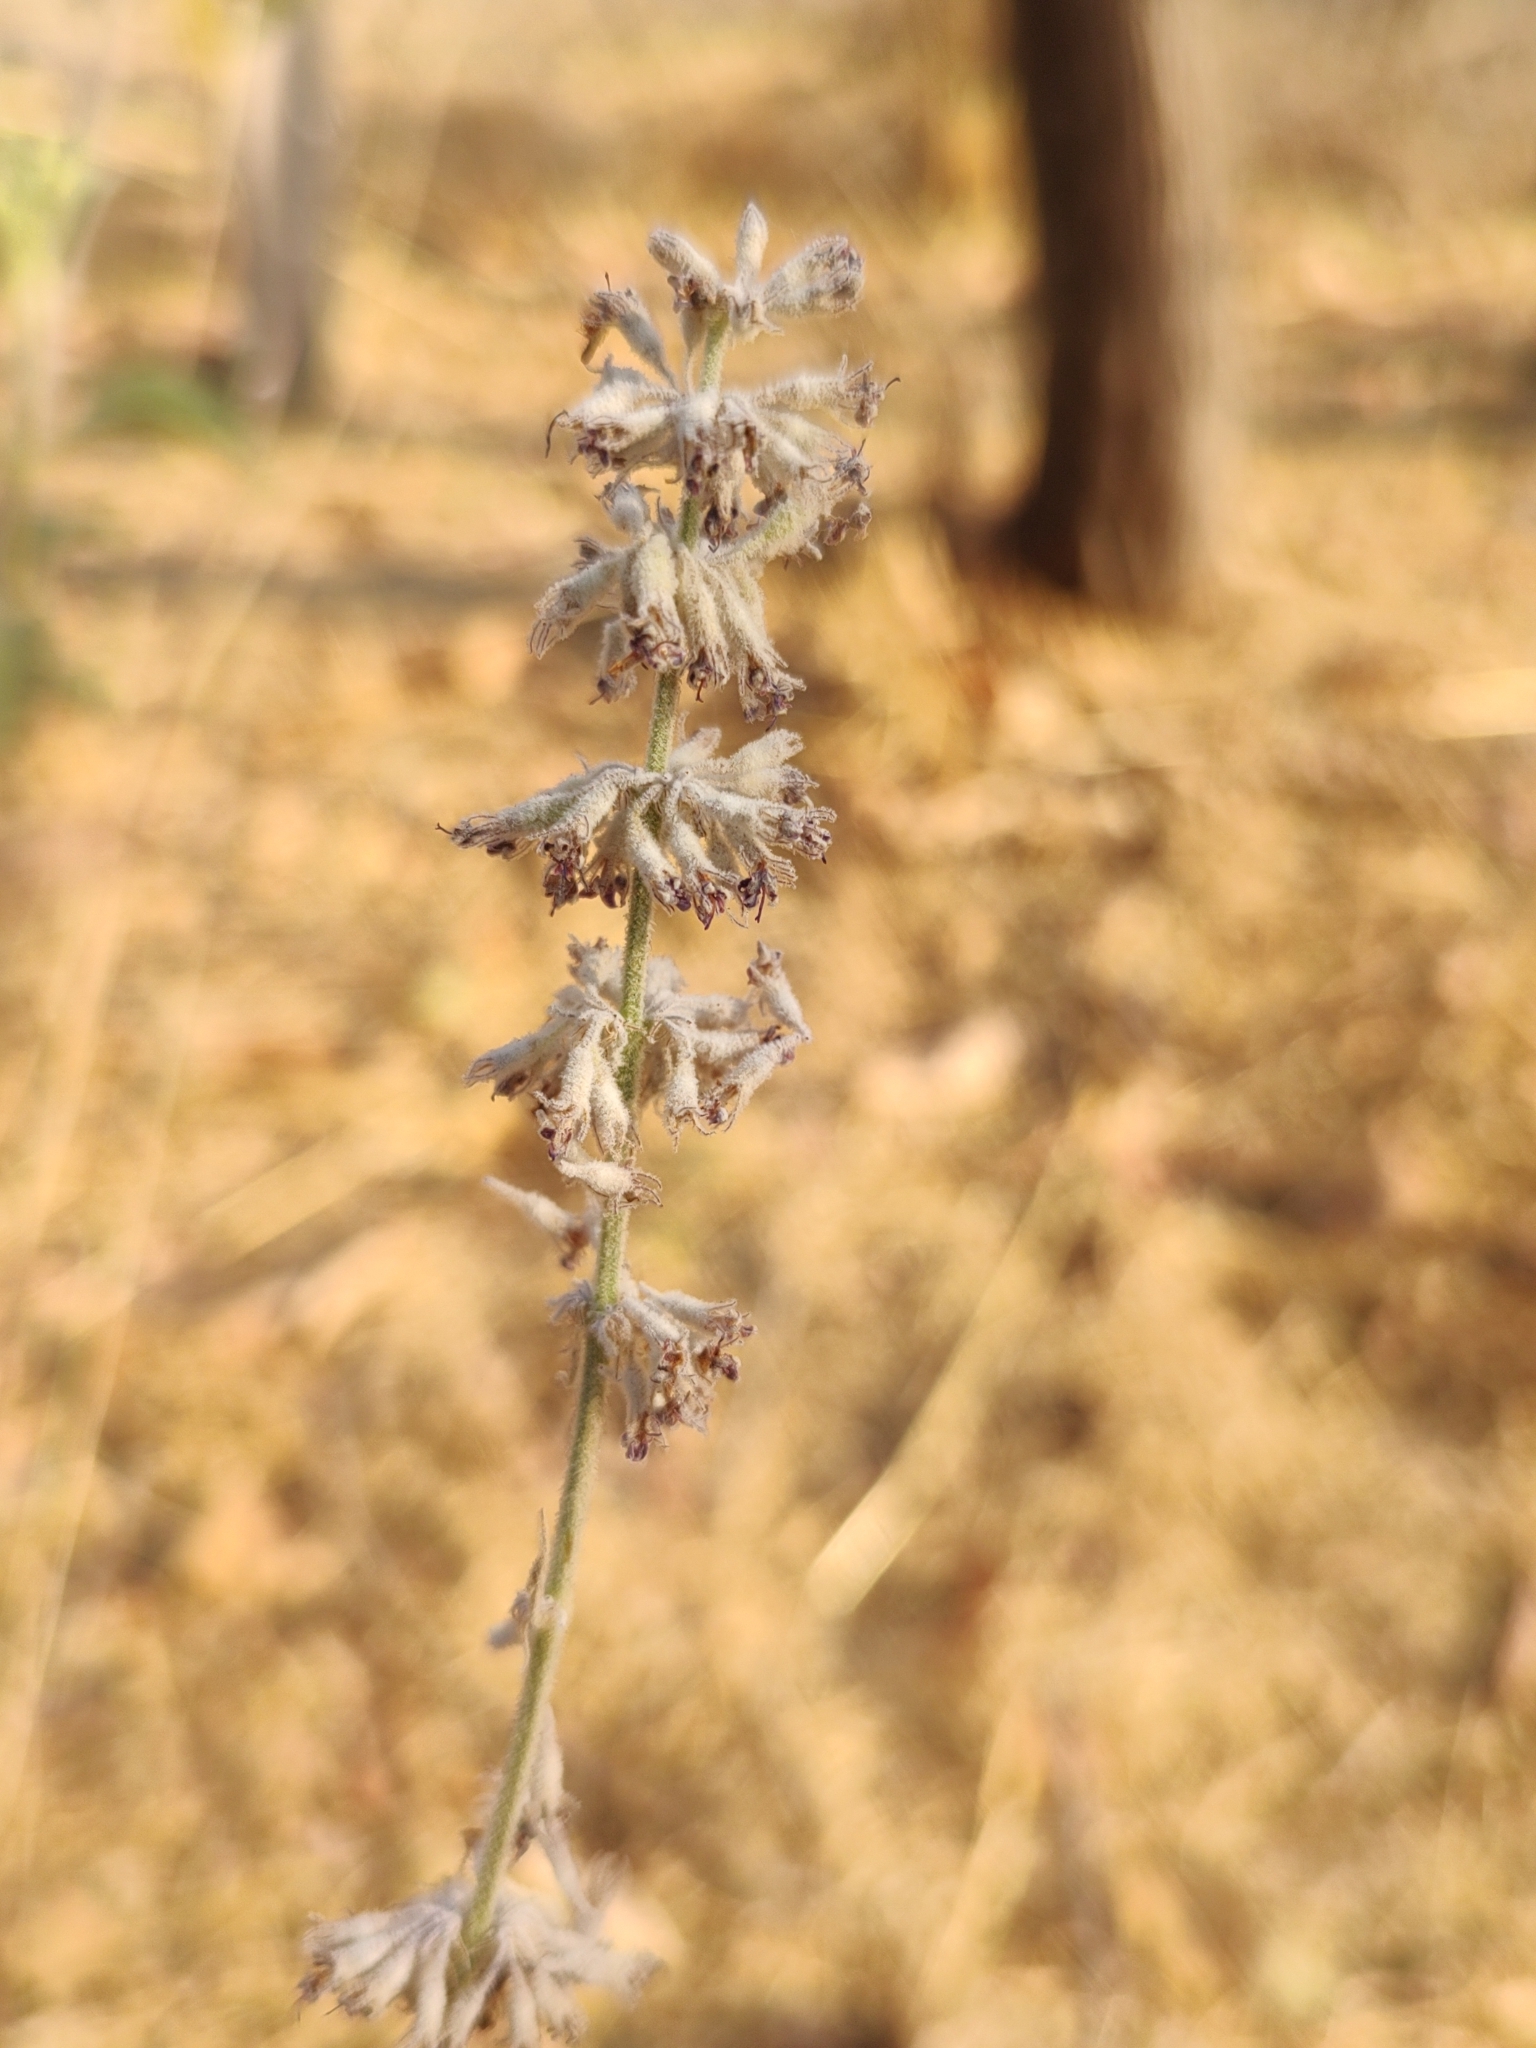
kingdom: Plantae
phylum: Tracheophyta
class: Magnoliopsida
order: Lamiales
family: Lamiaceae
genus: Condea
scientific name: Condea albida
